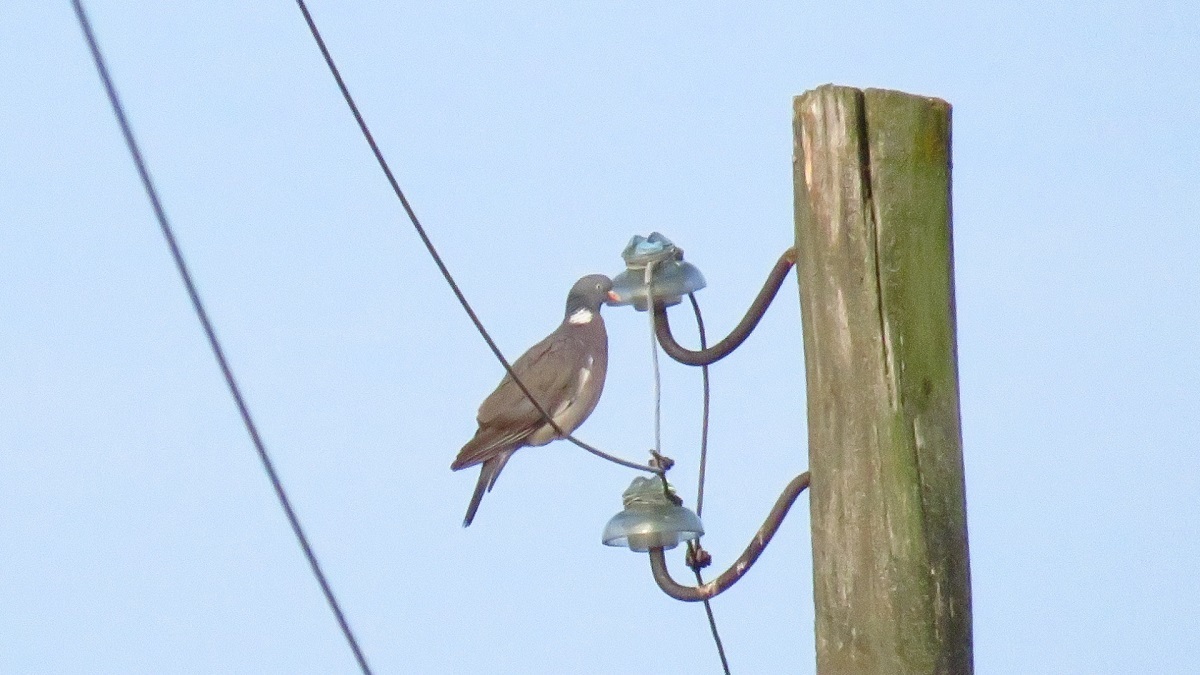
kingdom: Animalia
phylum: Chordata
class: Aves
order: Columbiformes
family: Columbidae
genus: Columba
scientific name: Columba palumbus
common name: Common wood pigeon
